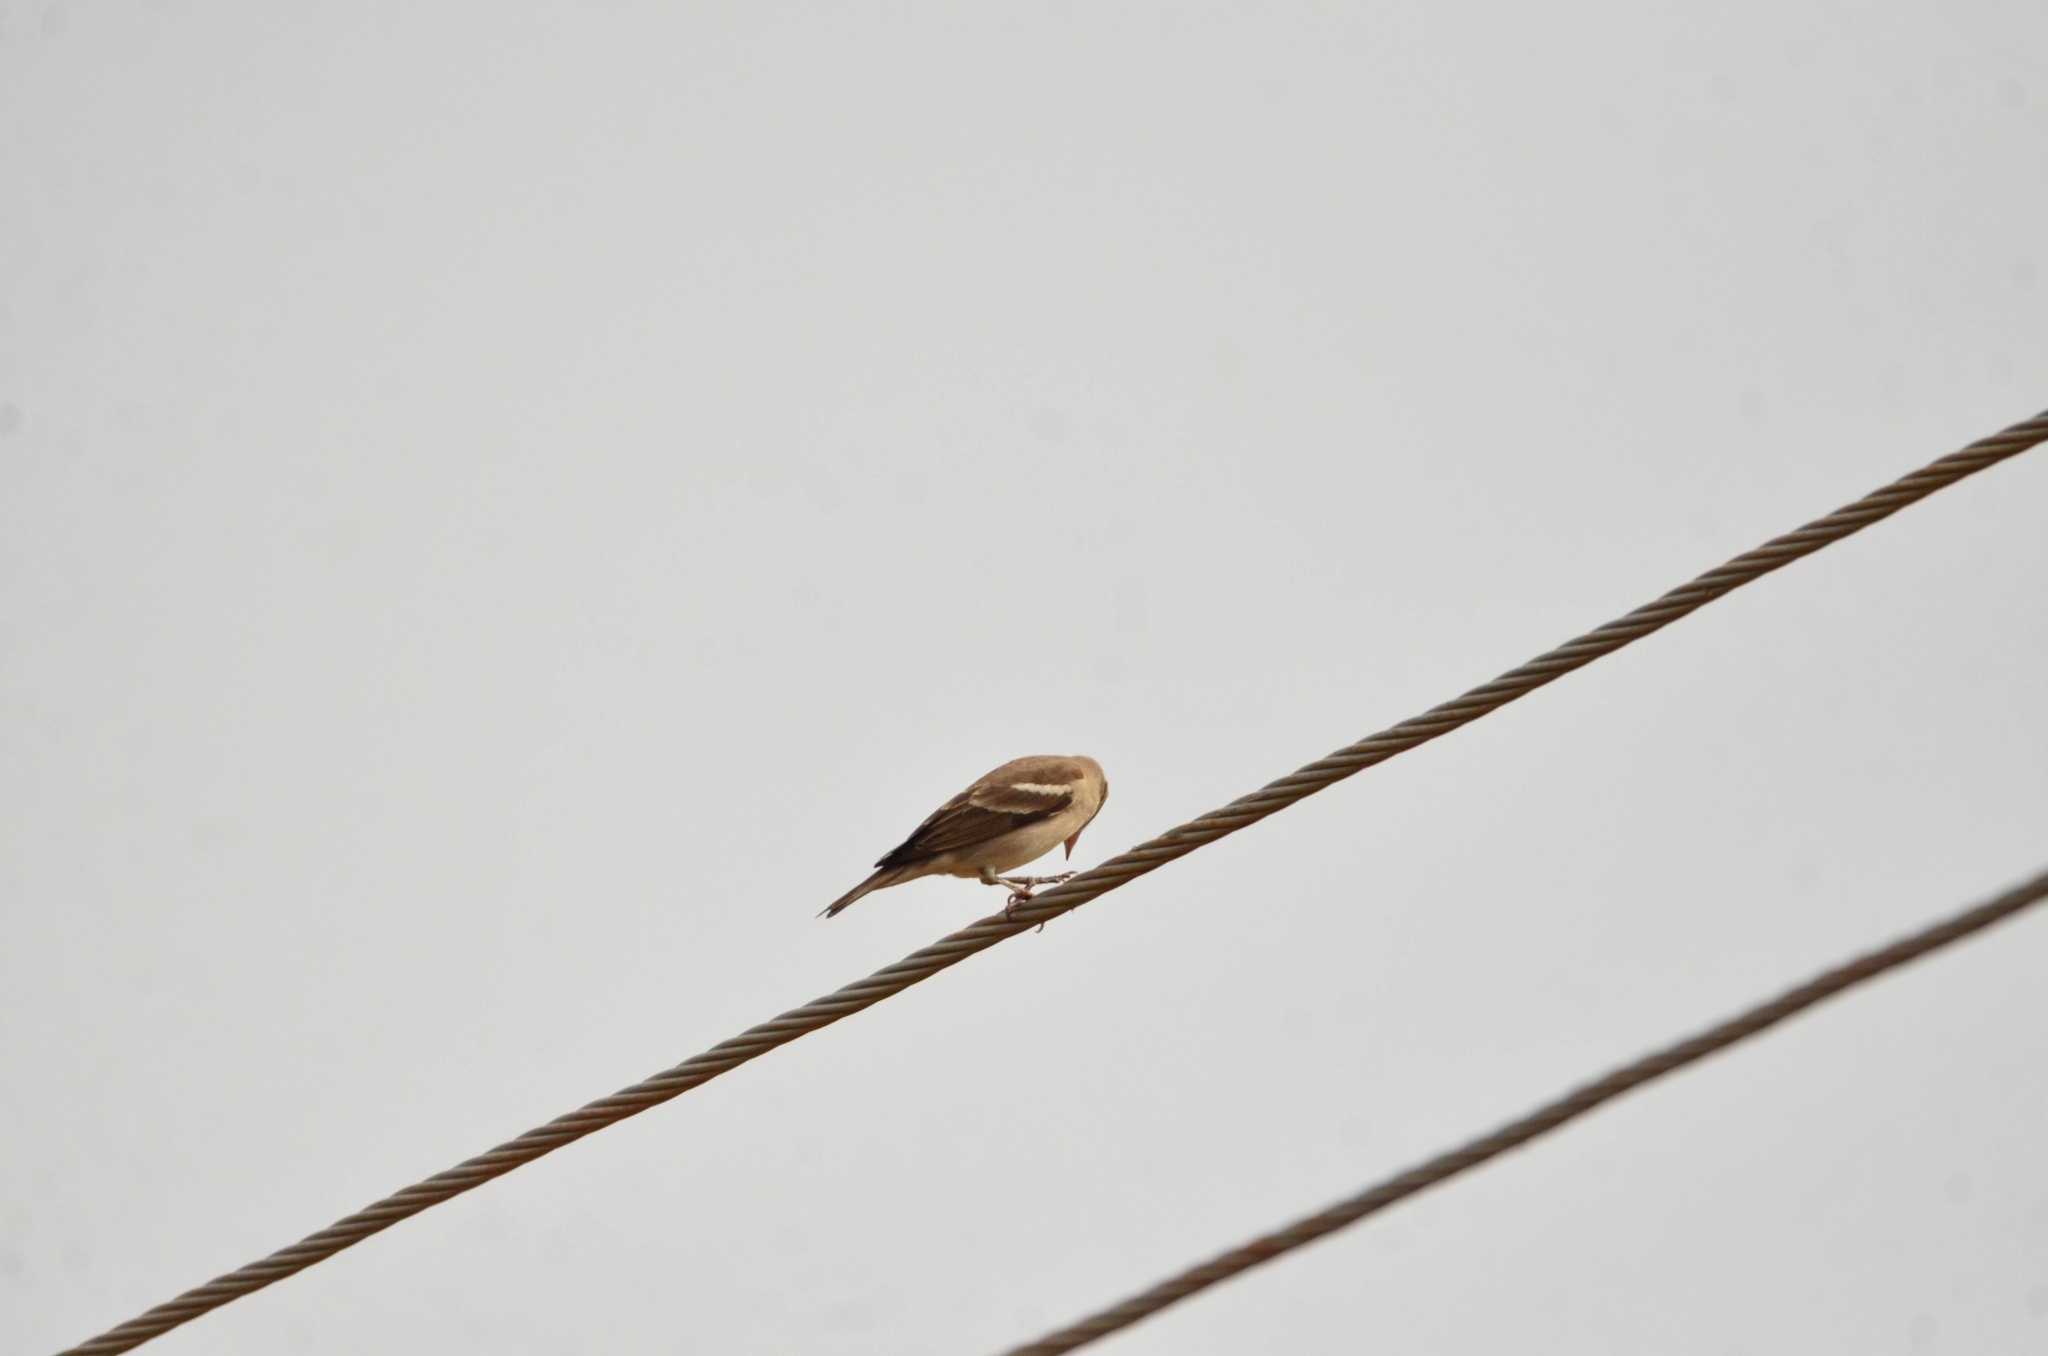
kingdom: Animalia
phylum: Chordata
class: Aves
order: Passeriformes
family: Passeridae
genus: Gymnoris
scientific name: Gymnoris xanthocollis
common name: Yellow-throated sparrow
